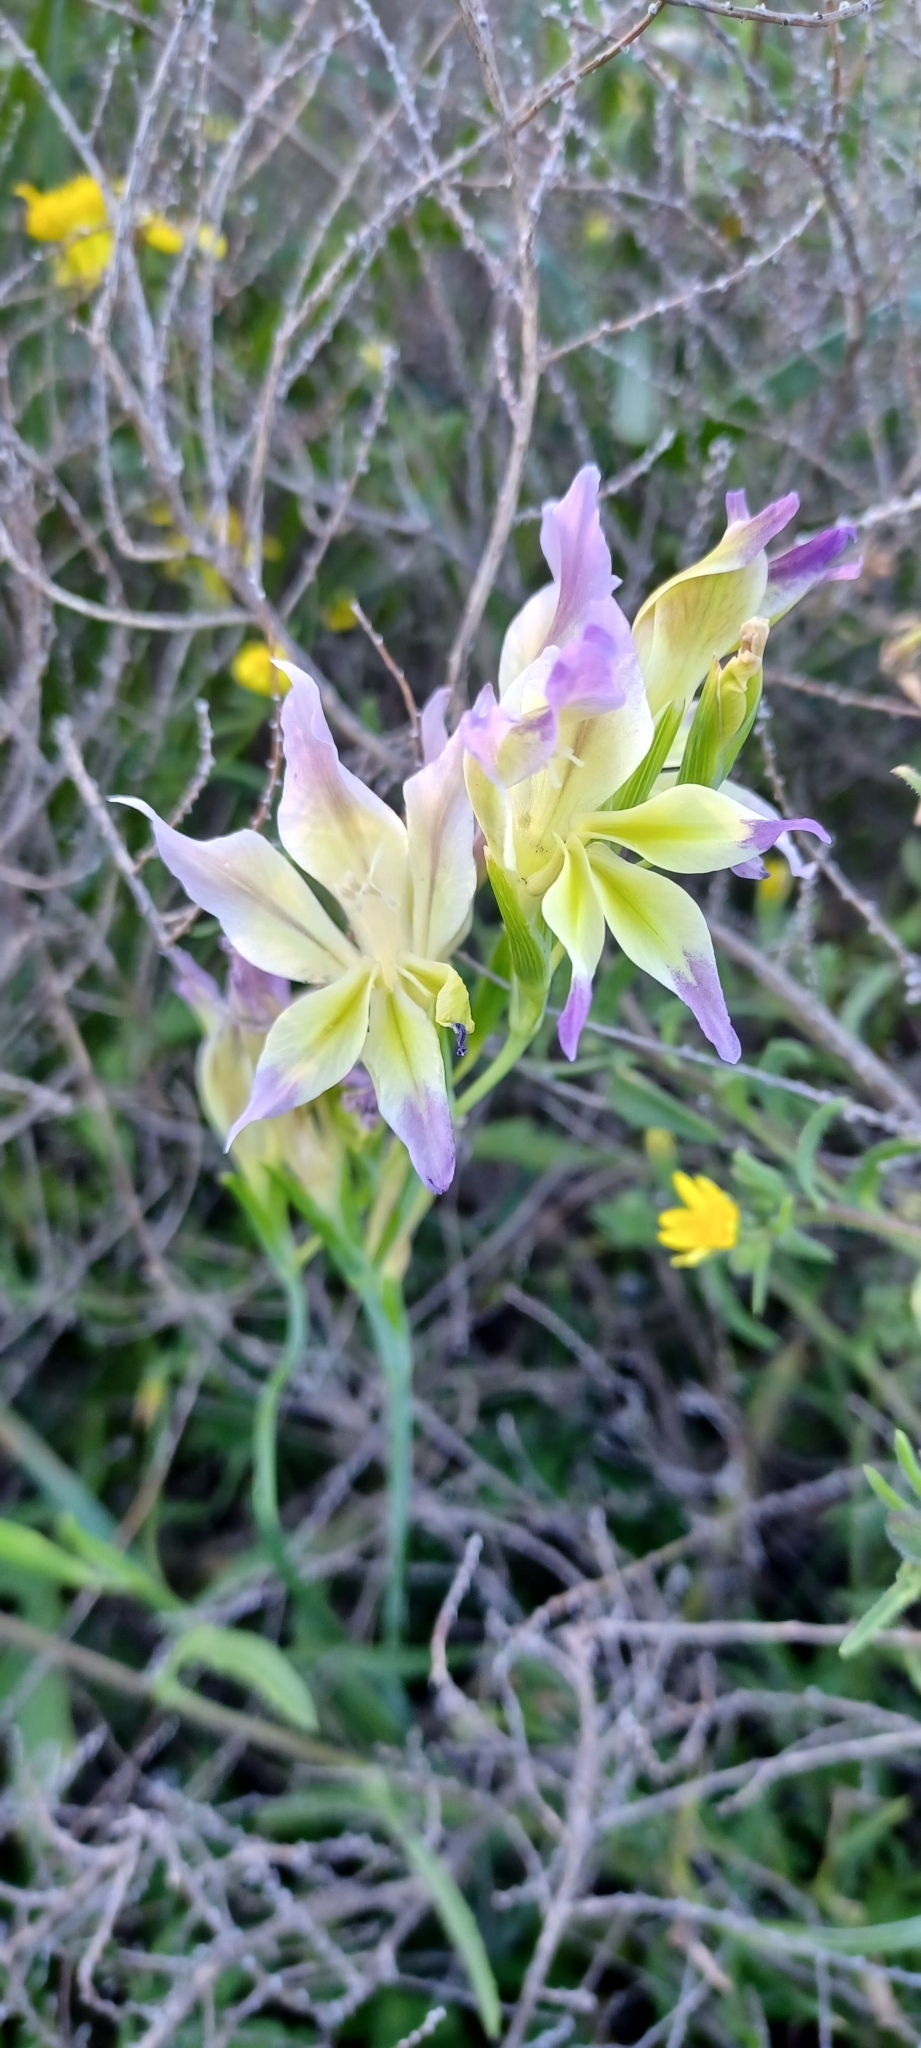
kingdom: Plantae
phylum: Tracheophyta
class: Liliopsida
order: Asparagales
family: Iridaceae
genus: Gladiolus
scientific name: Gladiolus venustus
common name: Purple kalkoentjie
